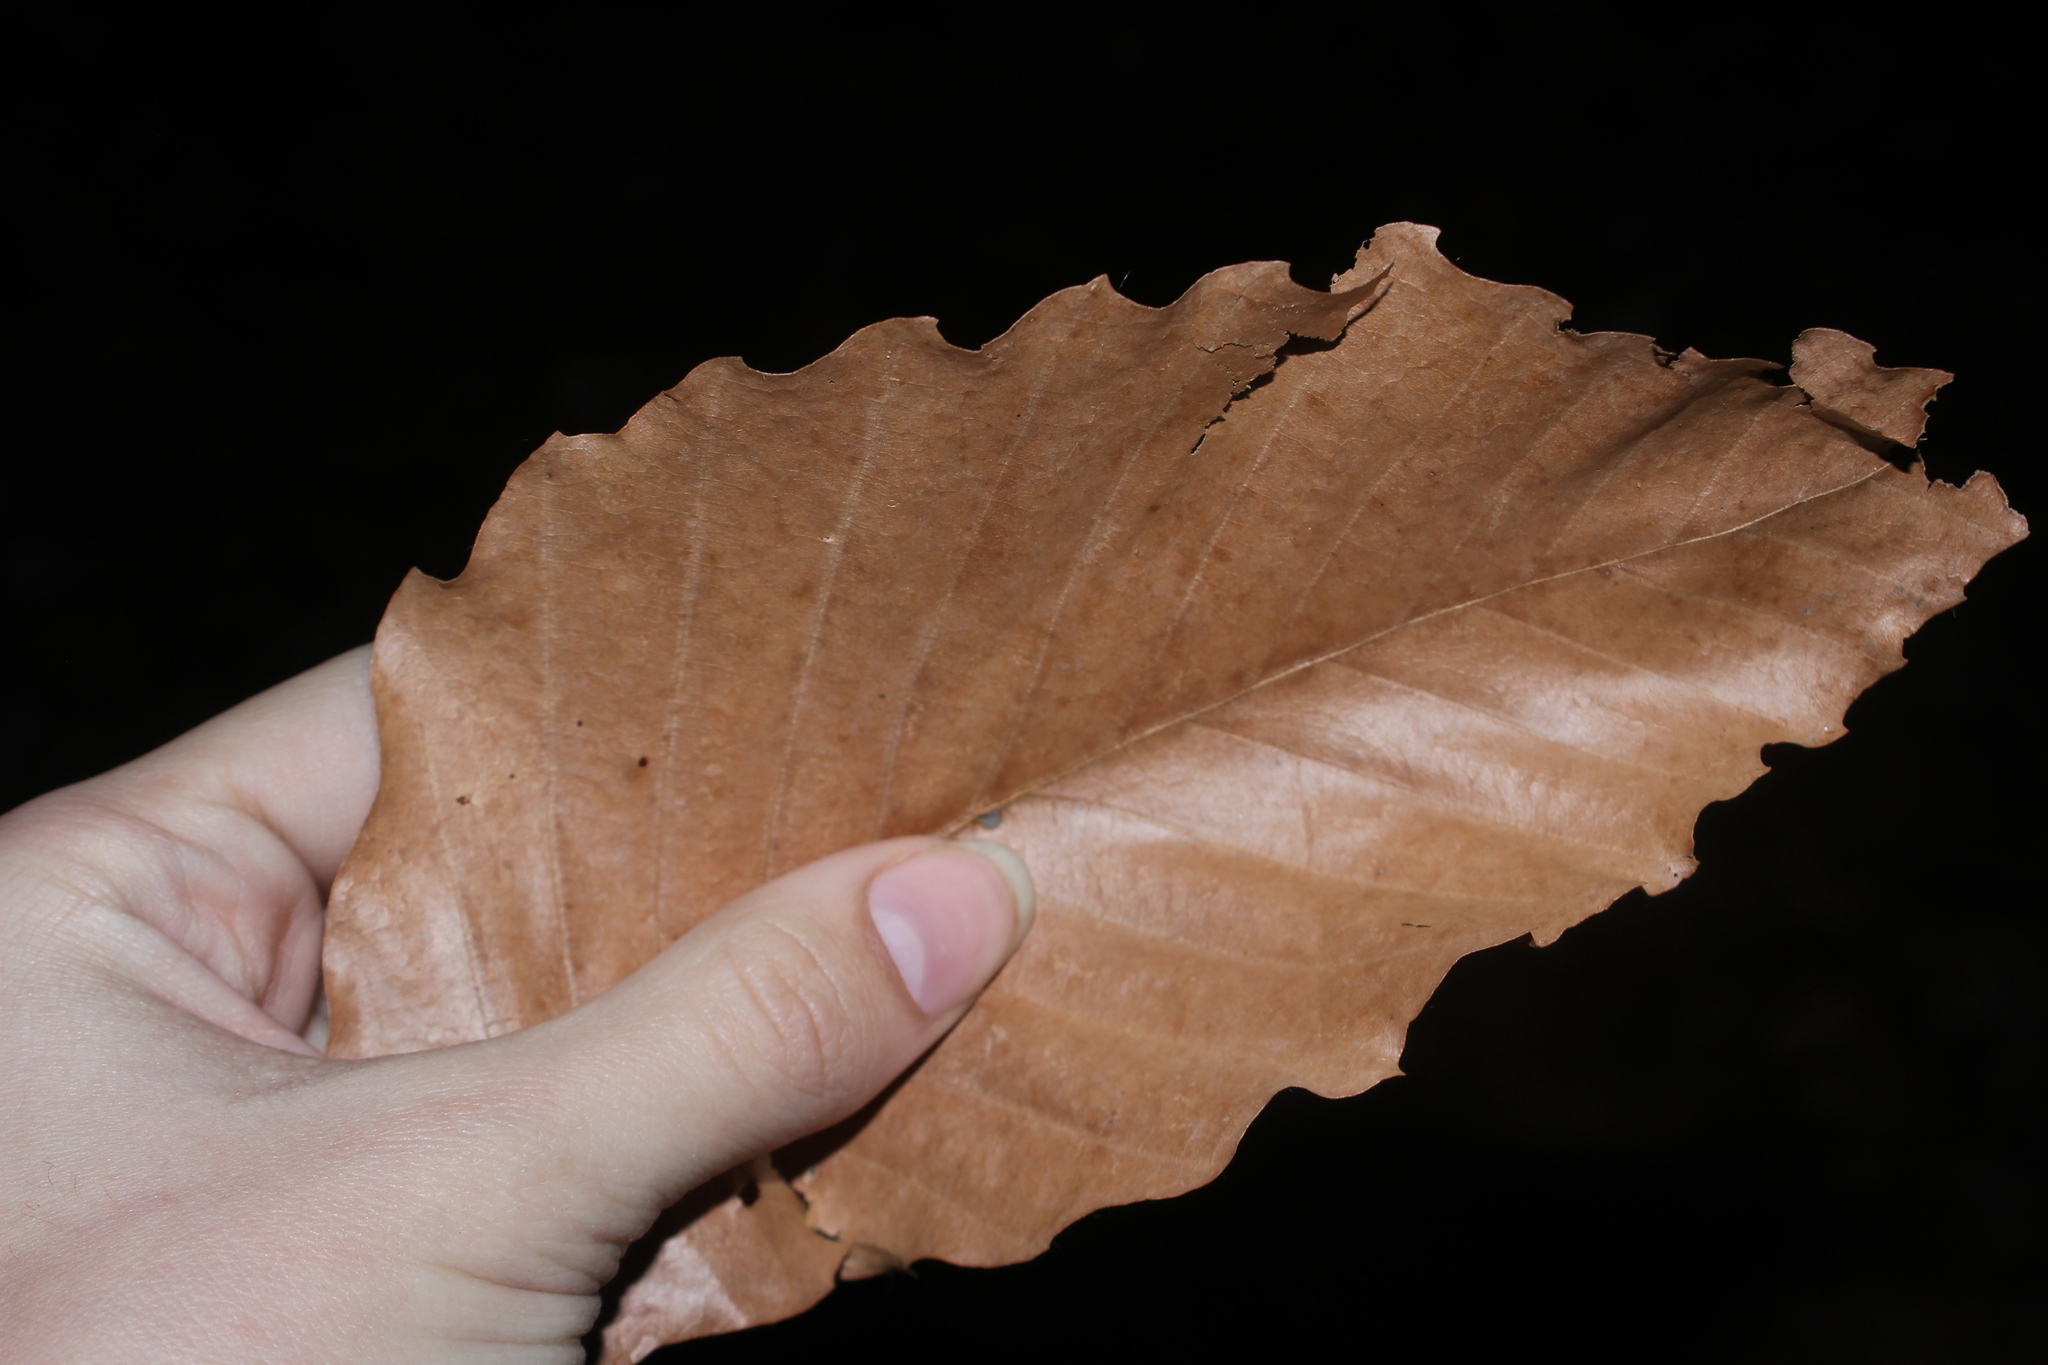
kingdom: Plantae
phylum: Tracheophyta
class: Magnoliopsida
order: Fagales
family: Fagaceae
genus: Fagus
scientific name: Fagus grandifolia
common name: American beech
